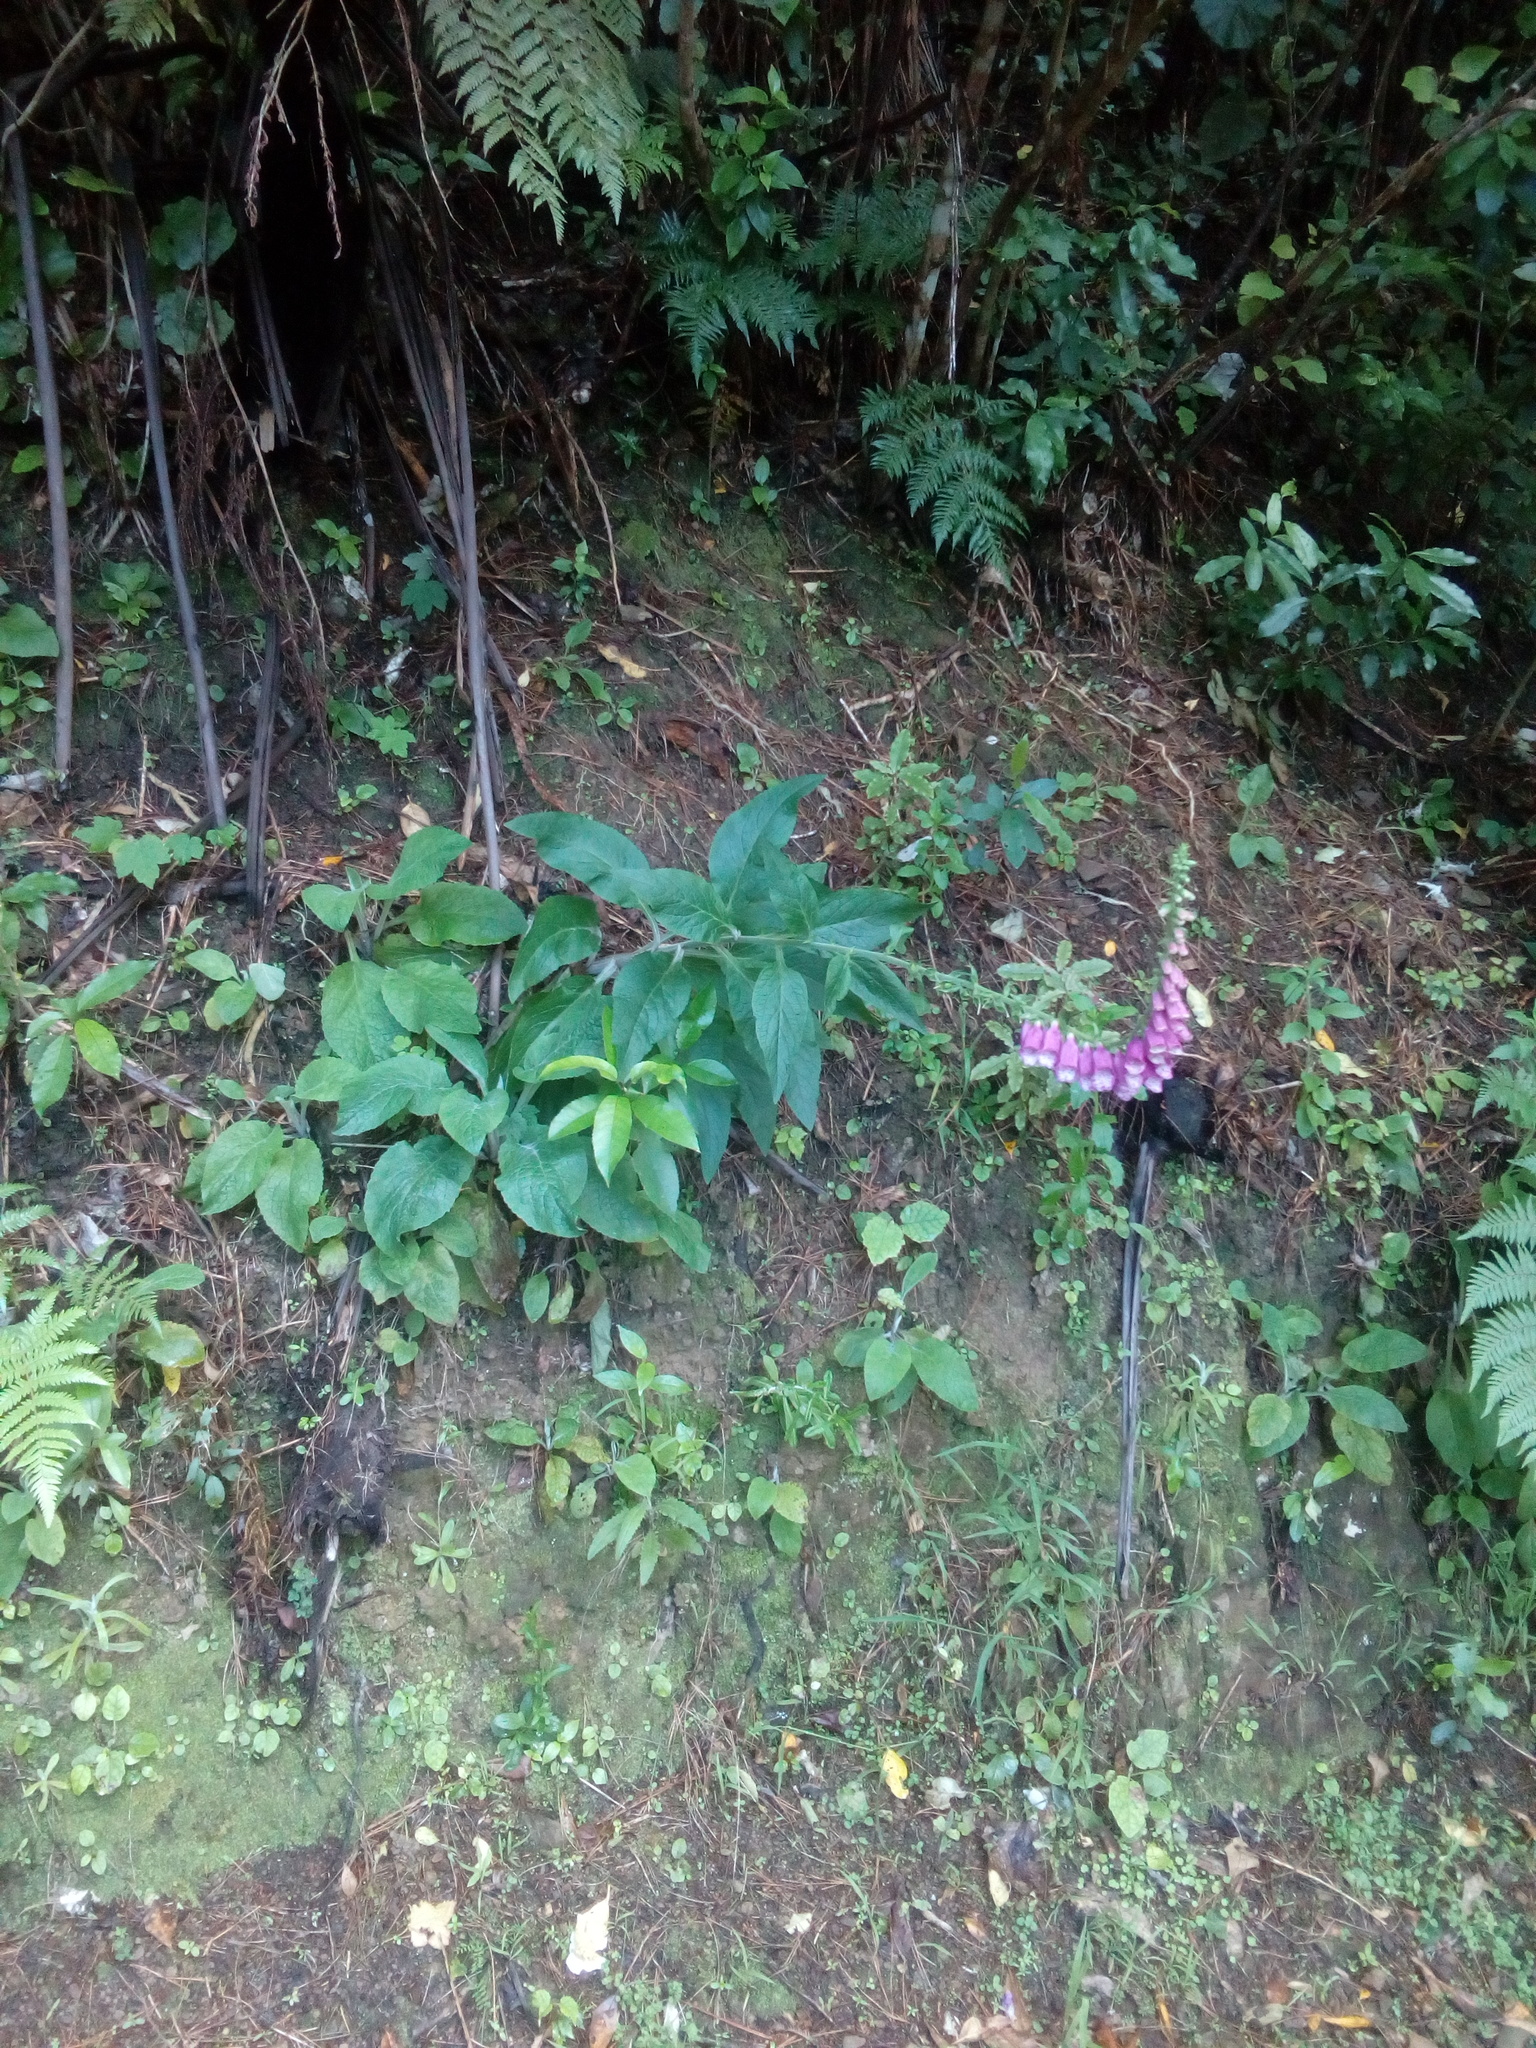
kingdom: Plantae
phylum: Tracheophyta
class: Magnoliopsida
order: Lamiales
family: Plantaginaceae
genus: Digitalis
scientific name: Digitalis purpurea
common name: Foxglove
